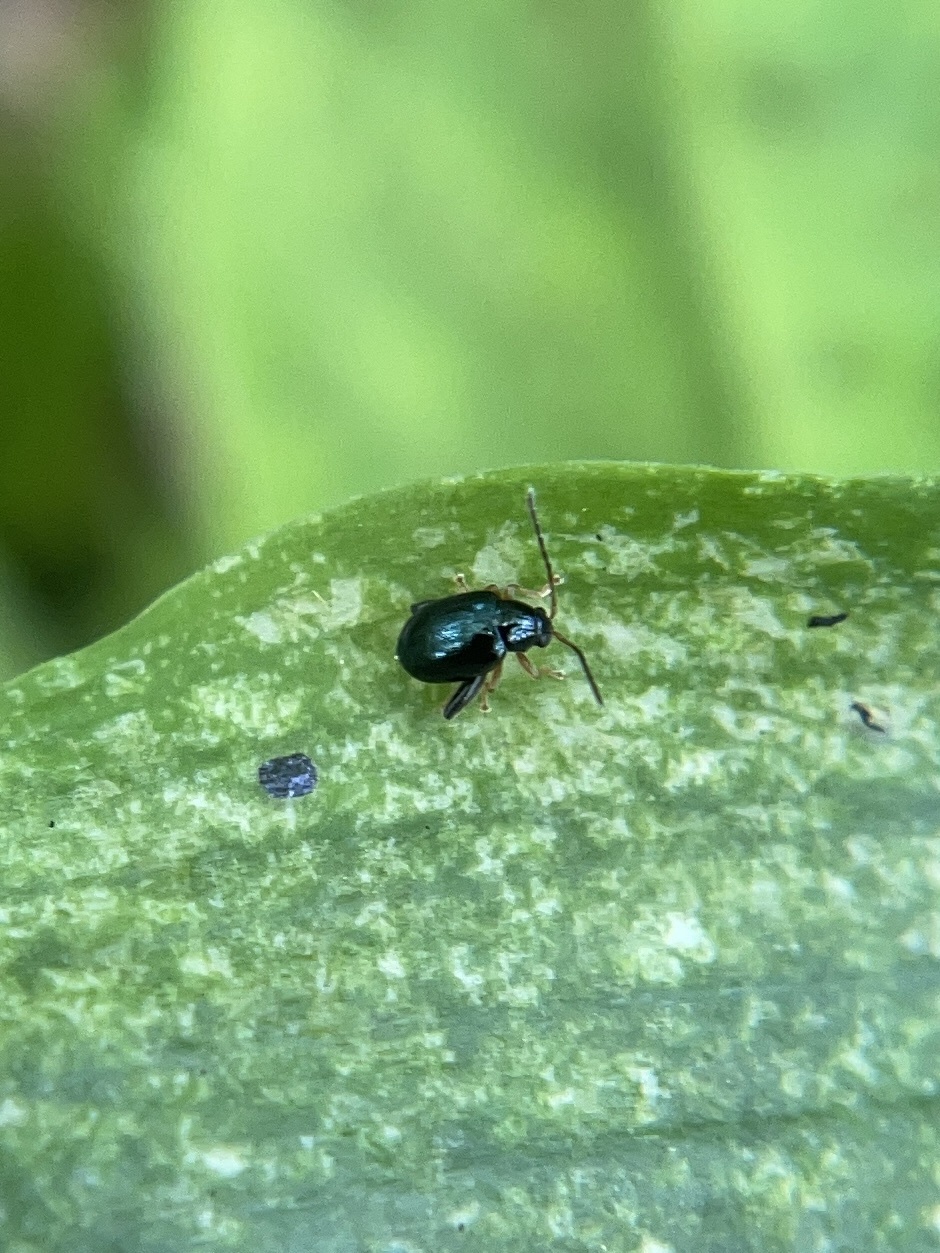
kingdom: Animalia
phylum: Arthropoda
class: Insecta
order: Coleoptera
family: Chrysomelidae
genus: Longitarsus
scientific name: Longitarsus linnaei
